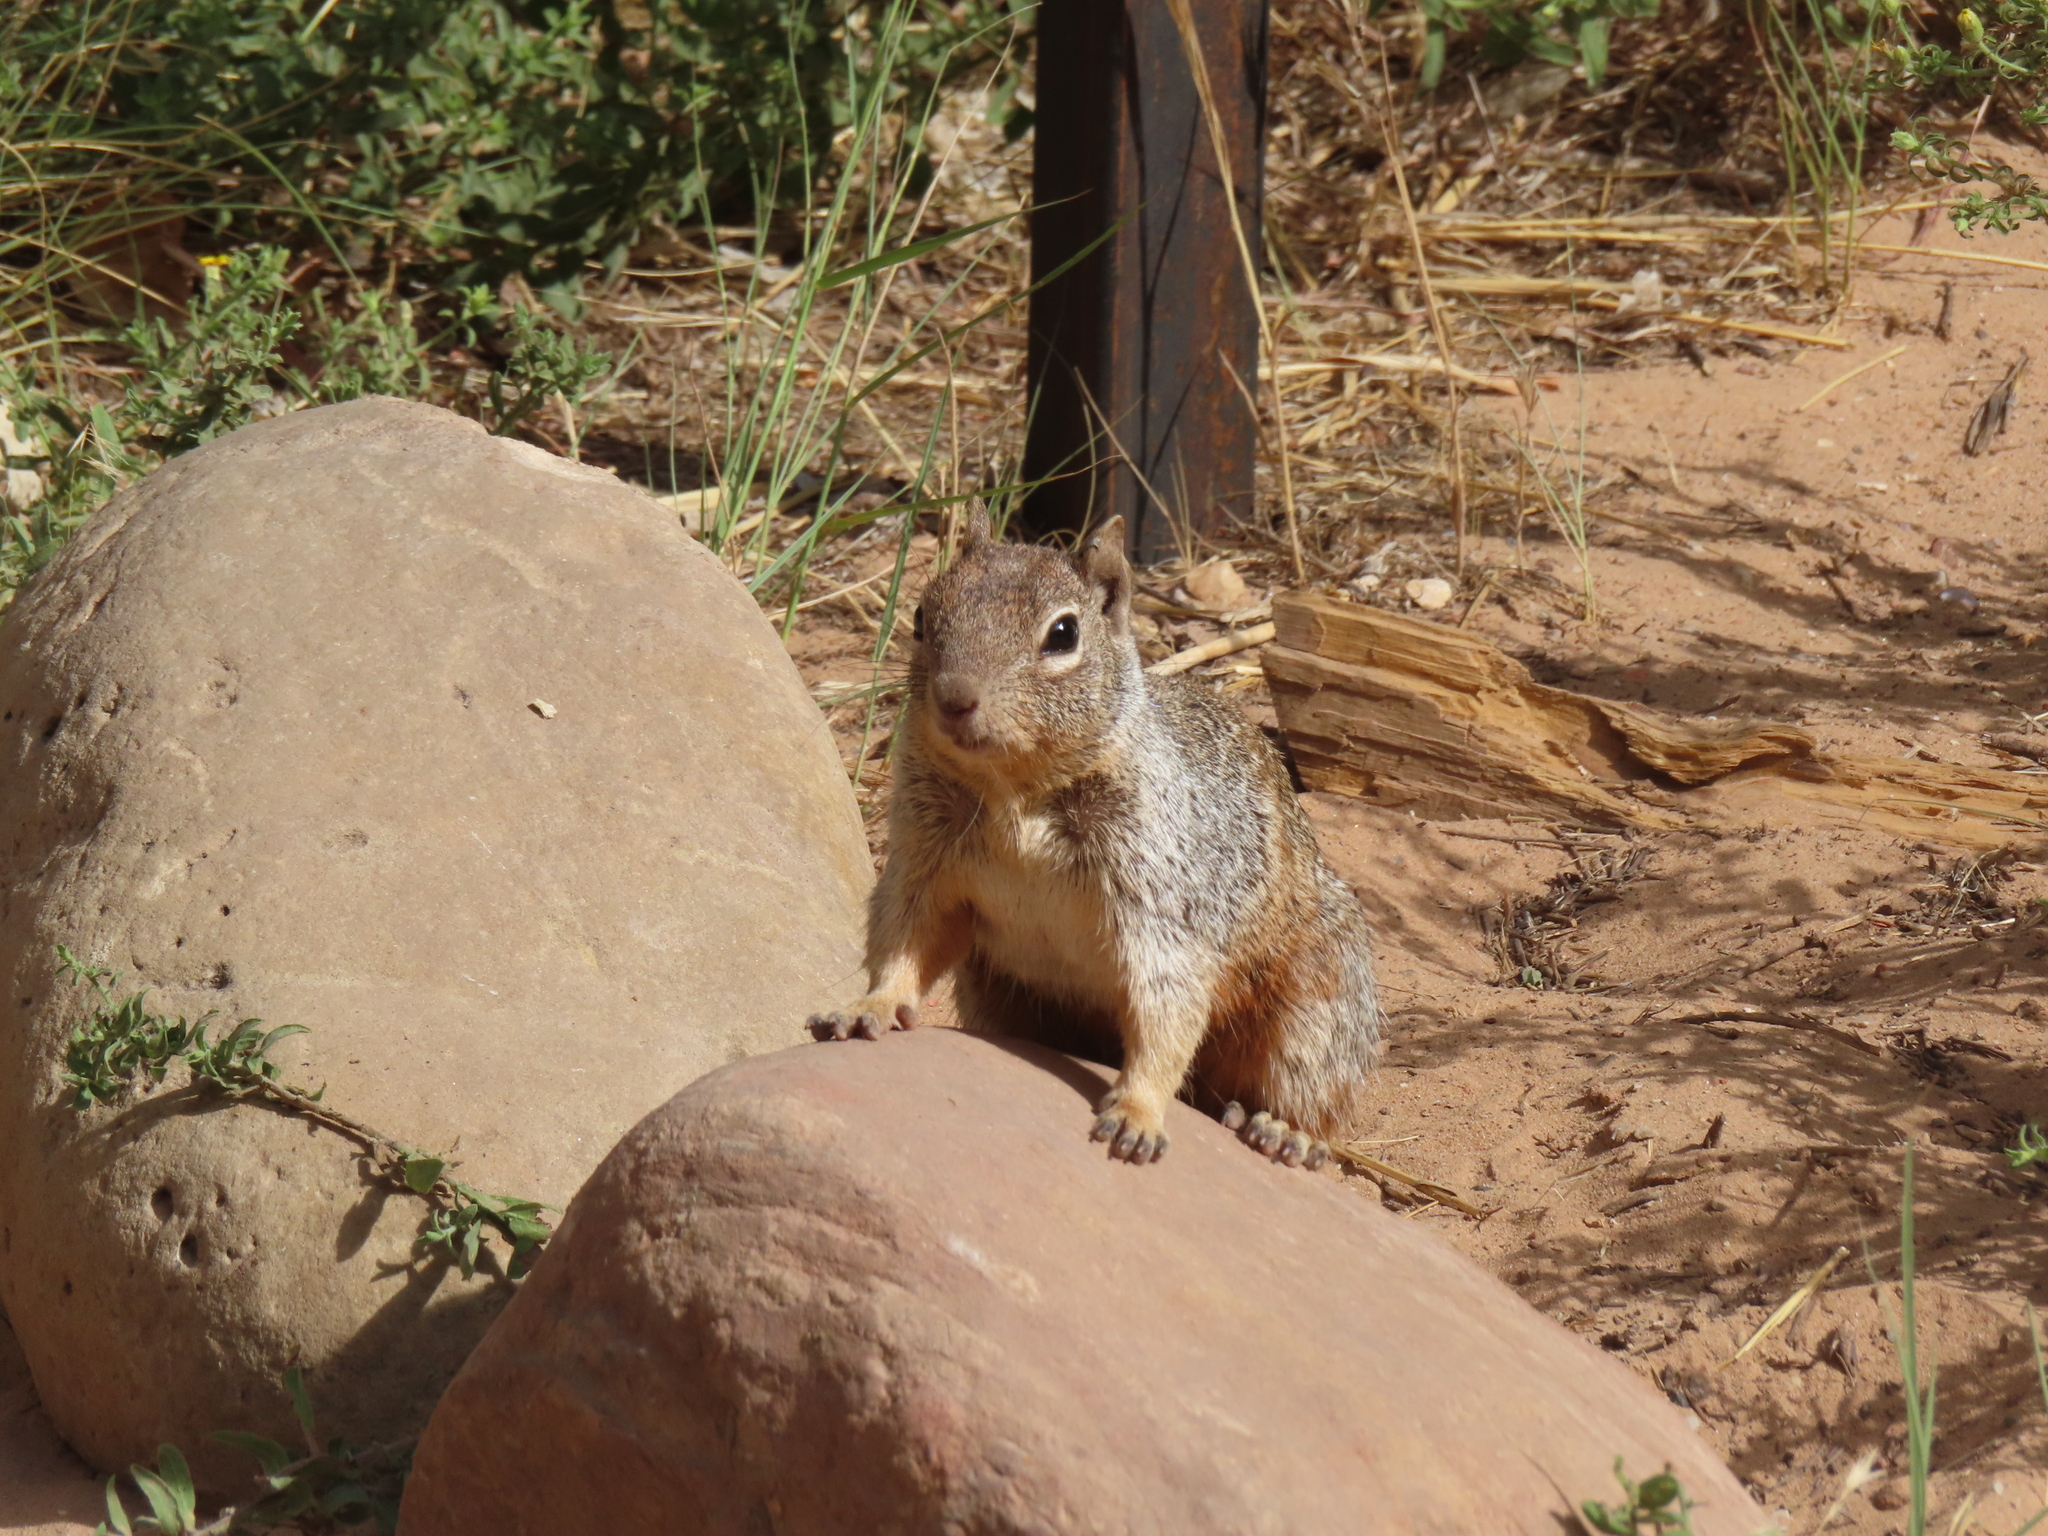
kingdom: Animalia
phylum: Chordata
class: Mammalia
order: Rodentia
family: Sciuridae
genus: Otospermophilus
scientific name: Otospermophilus variegatus
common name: Rock squirrel
